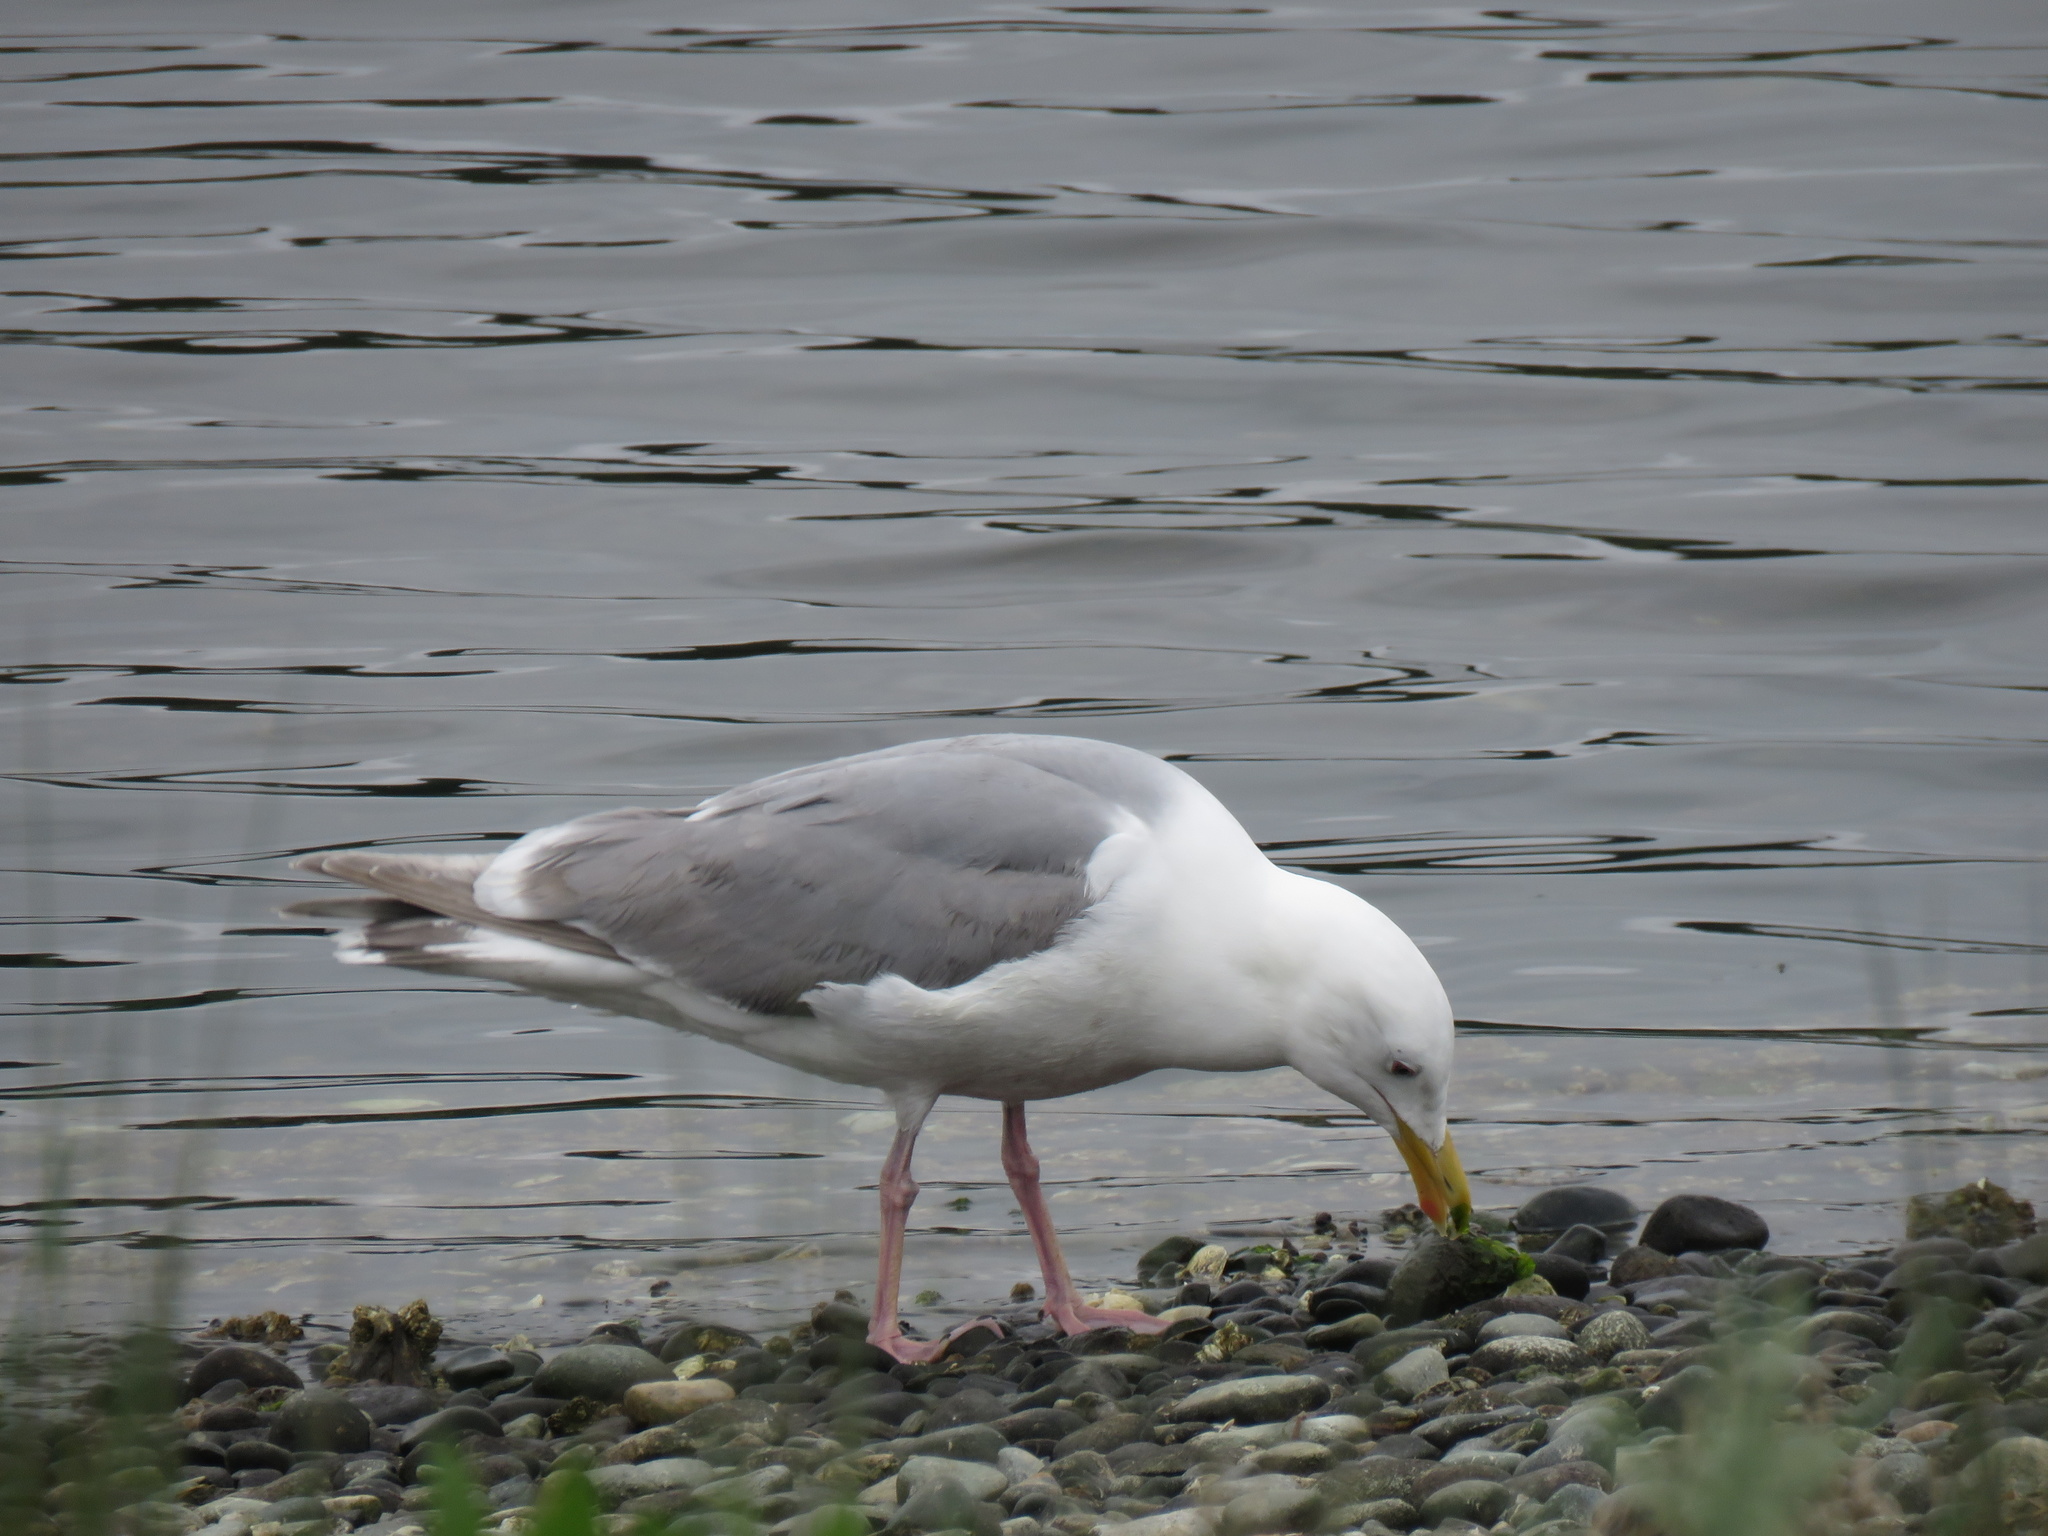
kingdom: Animalia
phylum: Chordata
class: Aves
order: Charadriiformes
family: Laridae
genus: Larus
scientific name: Larus glaucescens
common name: Glaucous-winged gull
